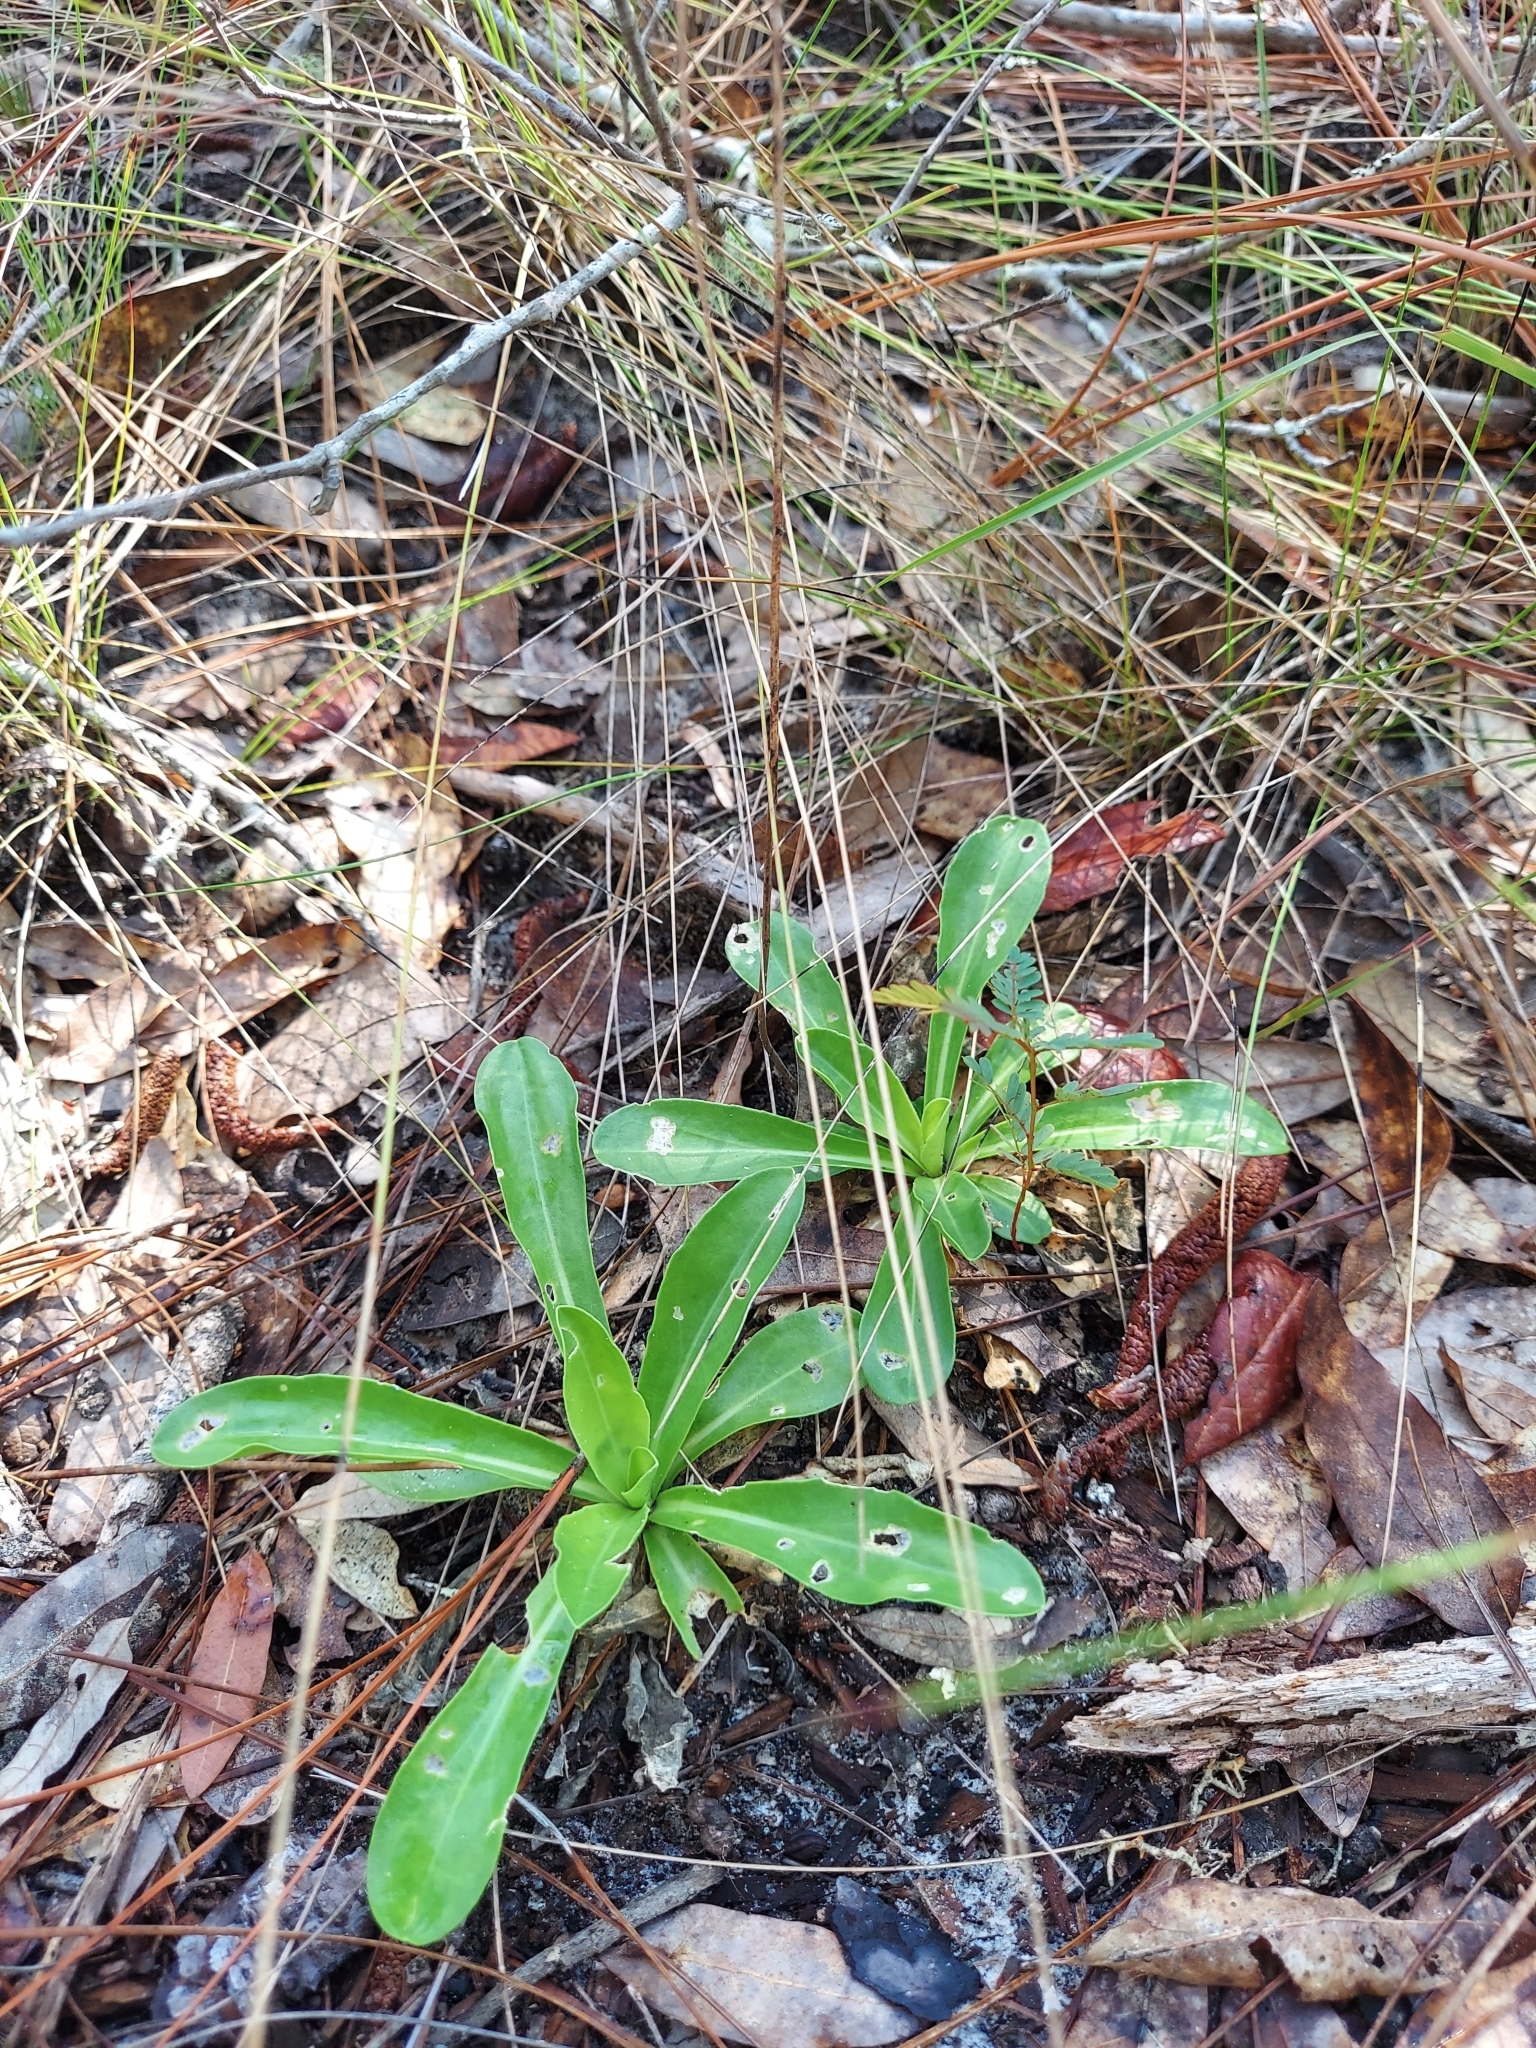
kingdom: Plantae
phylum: Tracheophyta
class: Magnoliopsida
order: Asterales
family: Asteraceae
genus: Carphephorus
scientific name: Carphephorus corymbosus
